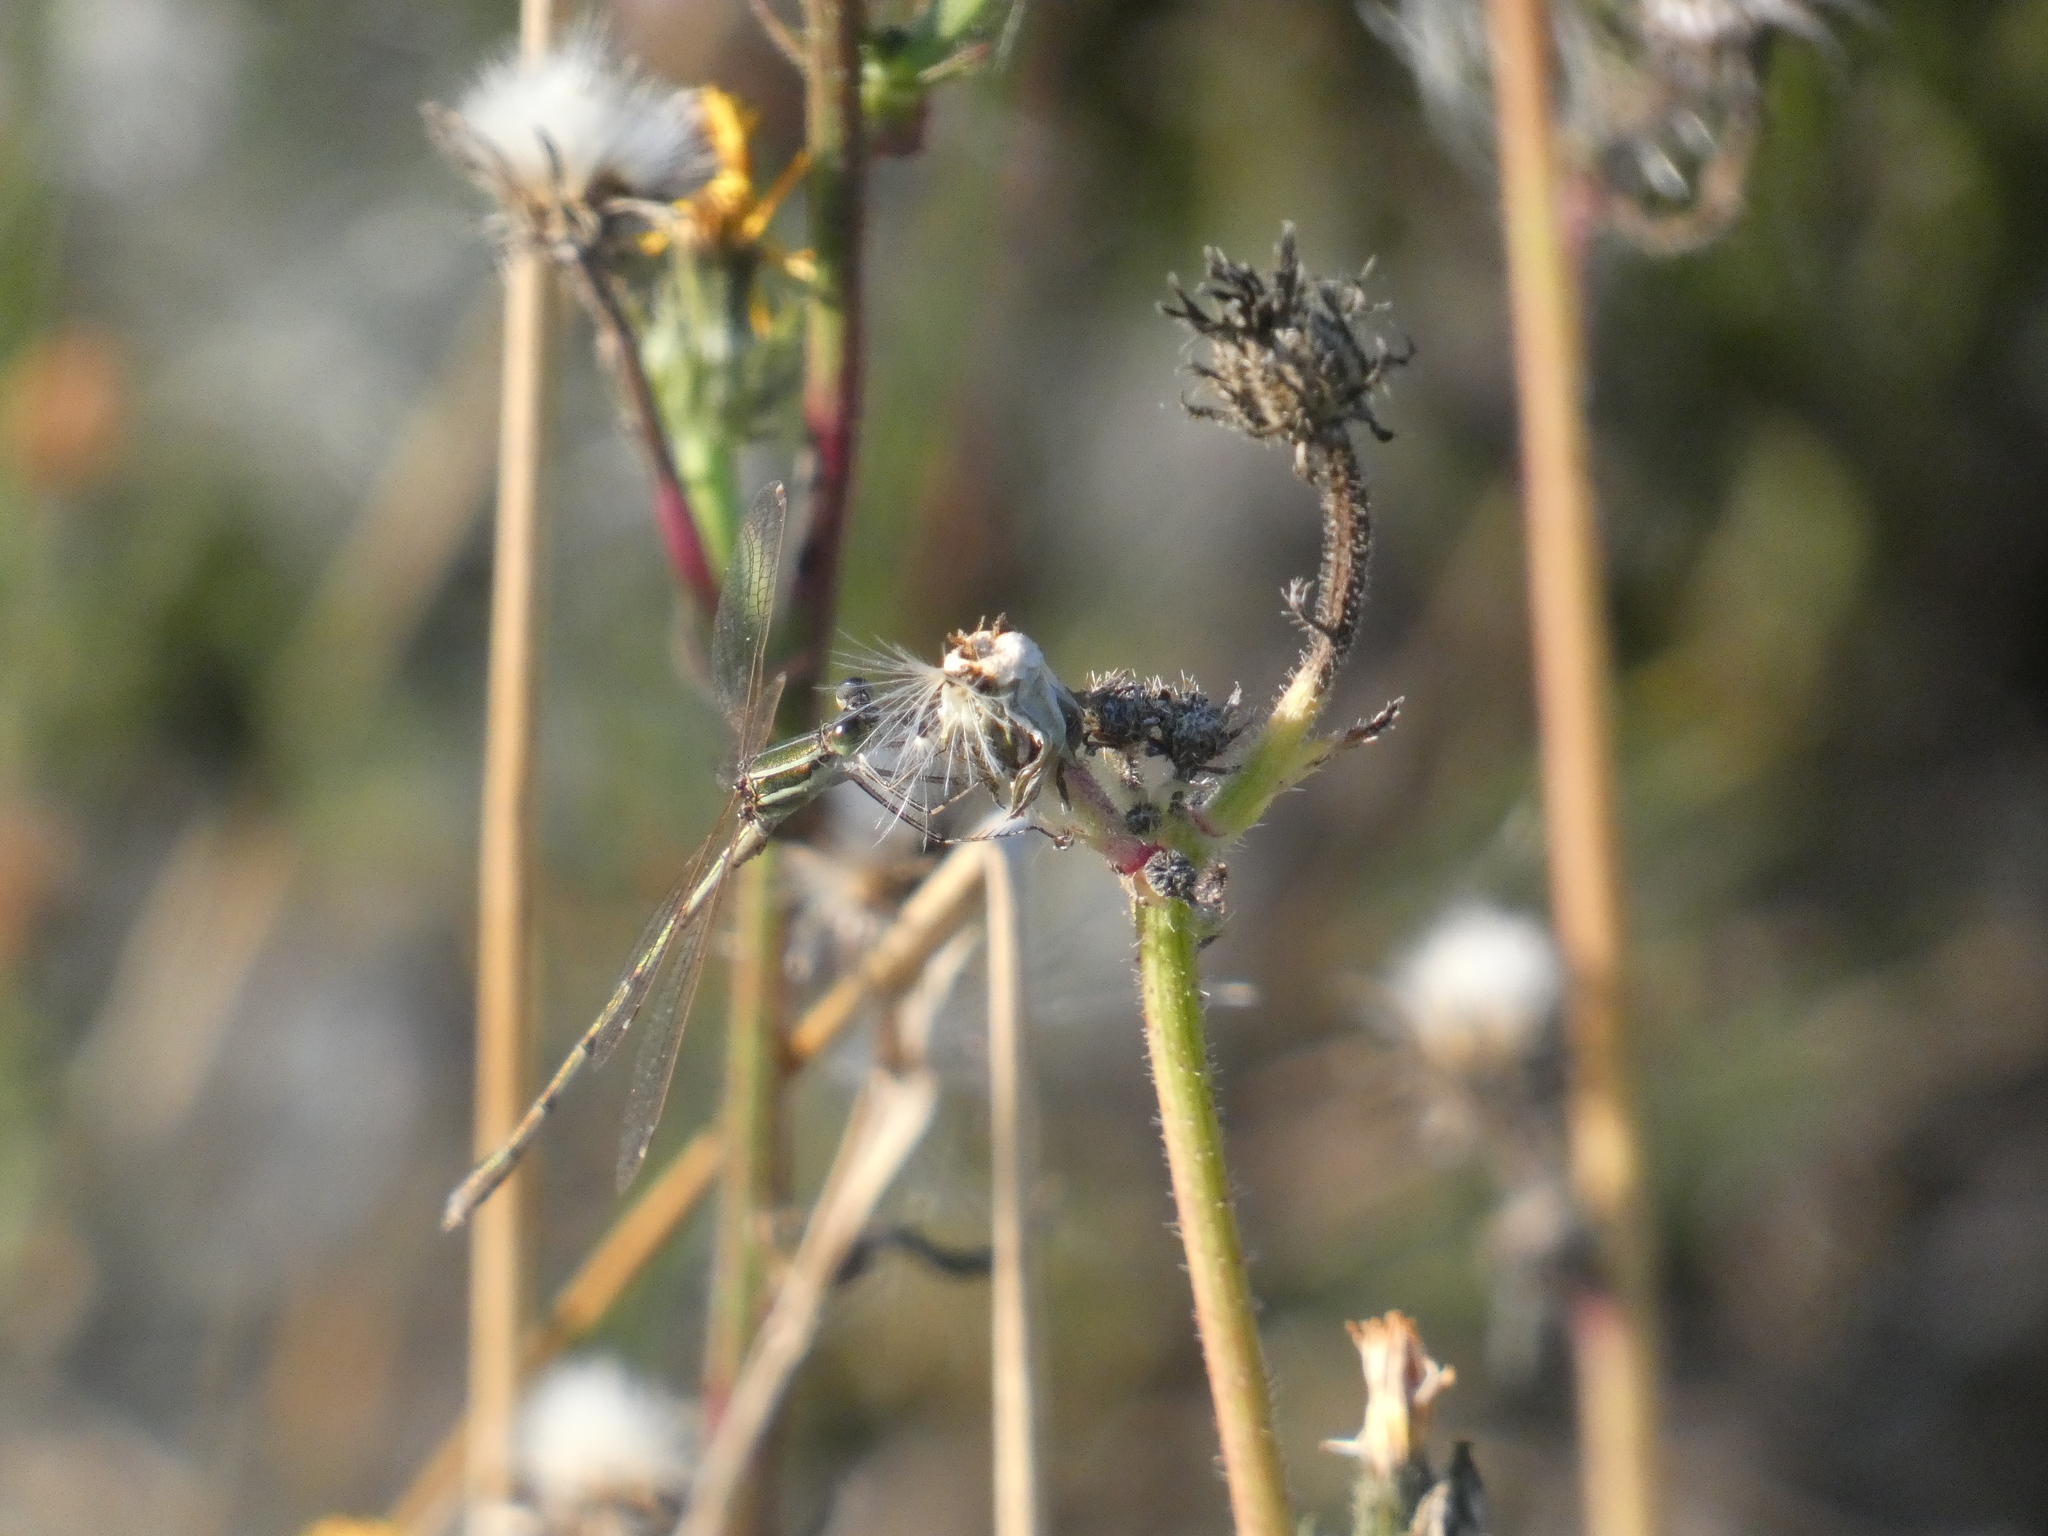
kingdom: Animalia
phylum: Arthropoda
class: Insecta
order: Odonata
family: Lestidae
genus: Lestes
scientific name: Lestes barbarus
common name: Migrant spreadwing
